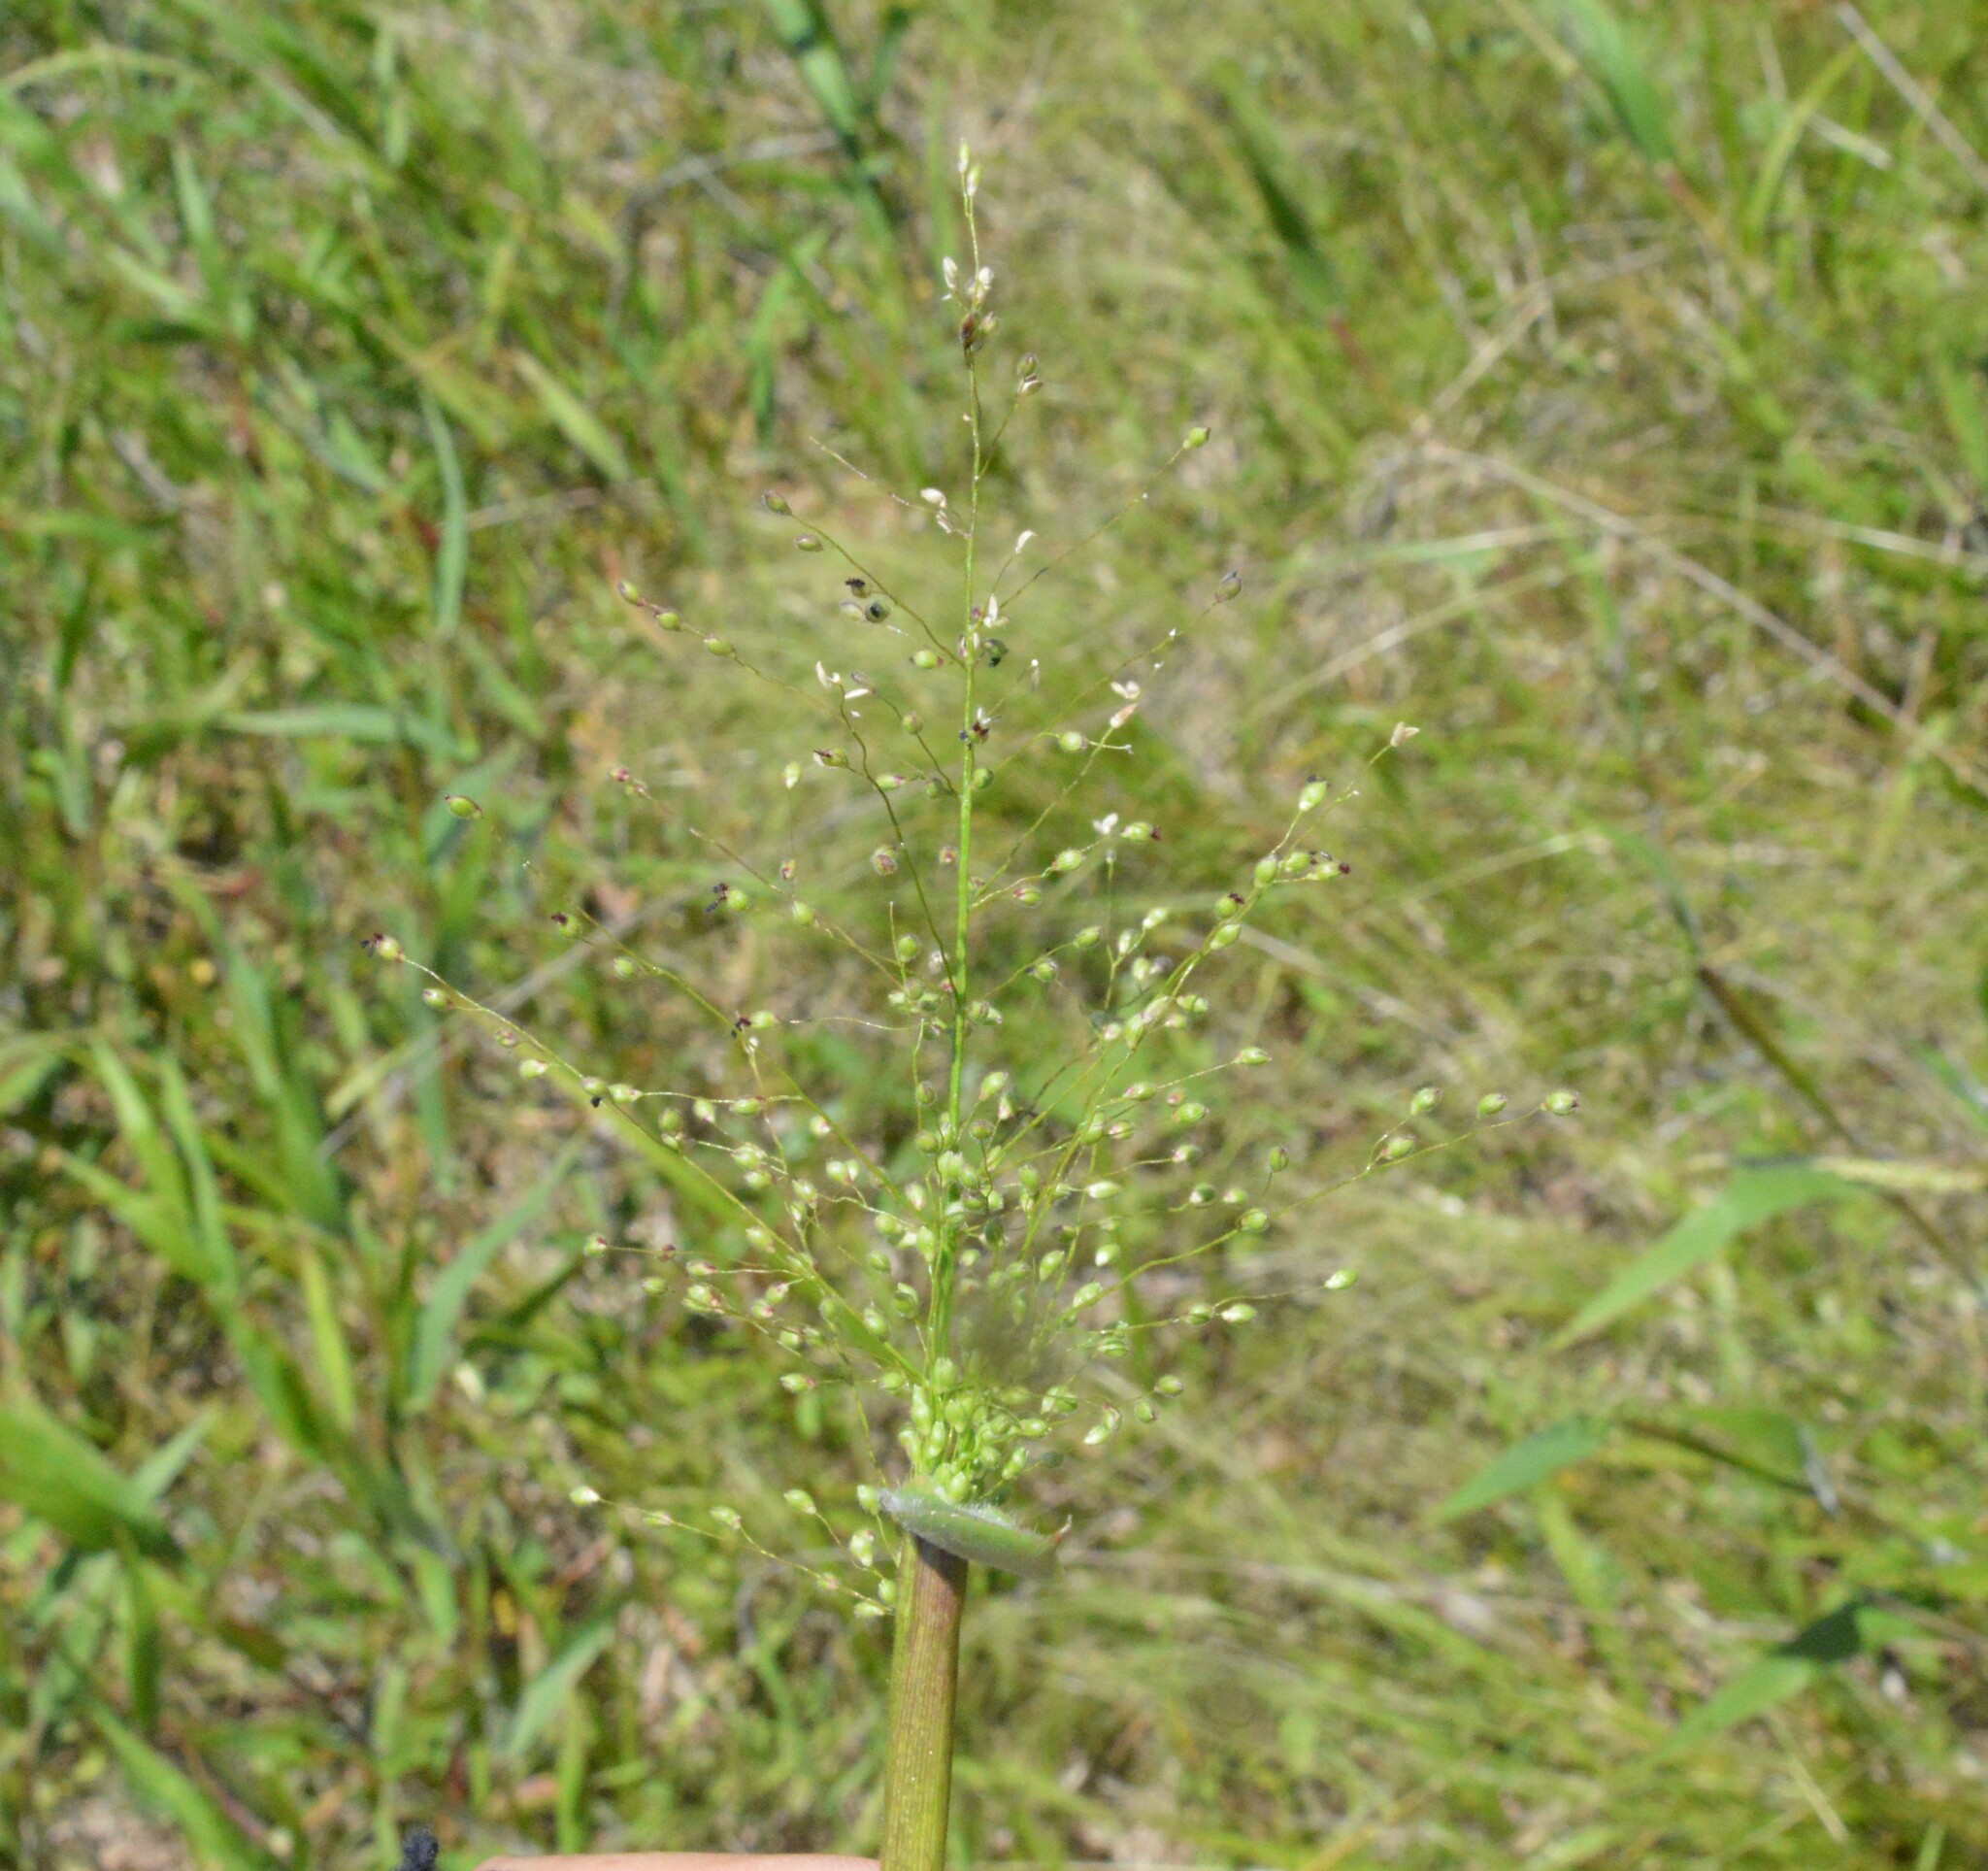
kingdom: Plantae
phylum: Tracheophyta
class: Liliopsida
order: Poales
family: Poaceae
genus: Dichanthelium
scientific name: Dichanthelium scoparium
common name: Velvety panic grass
